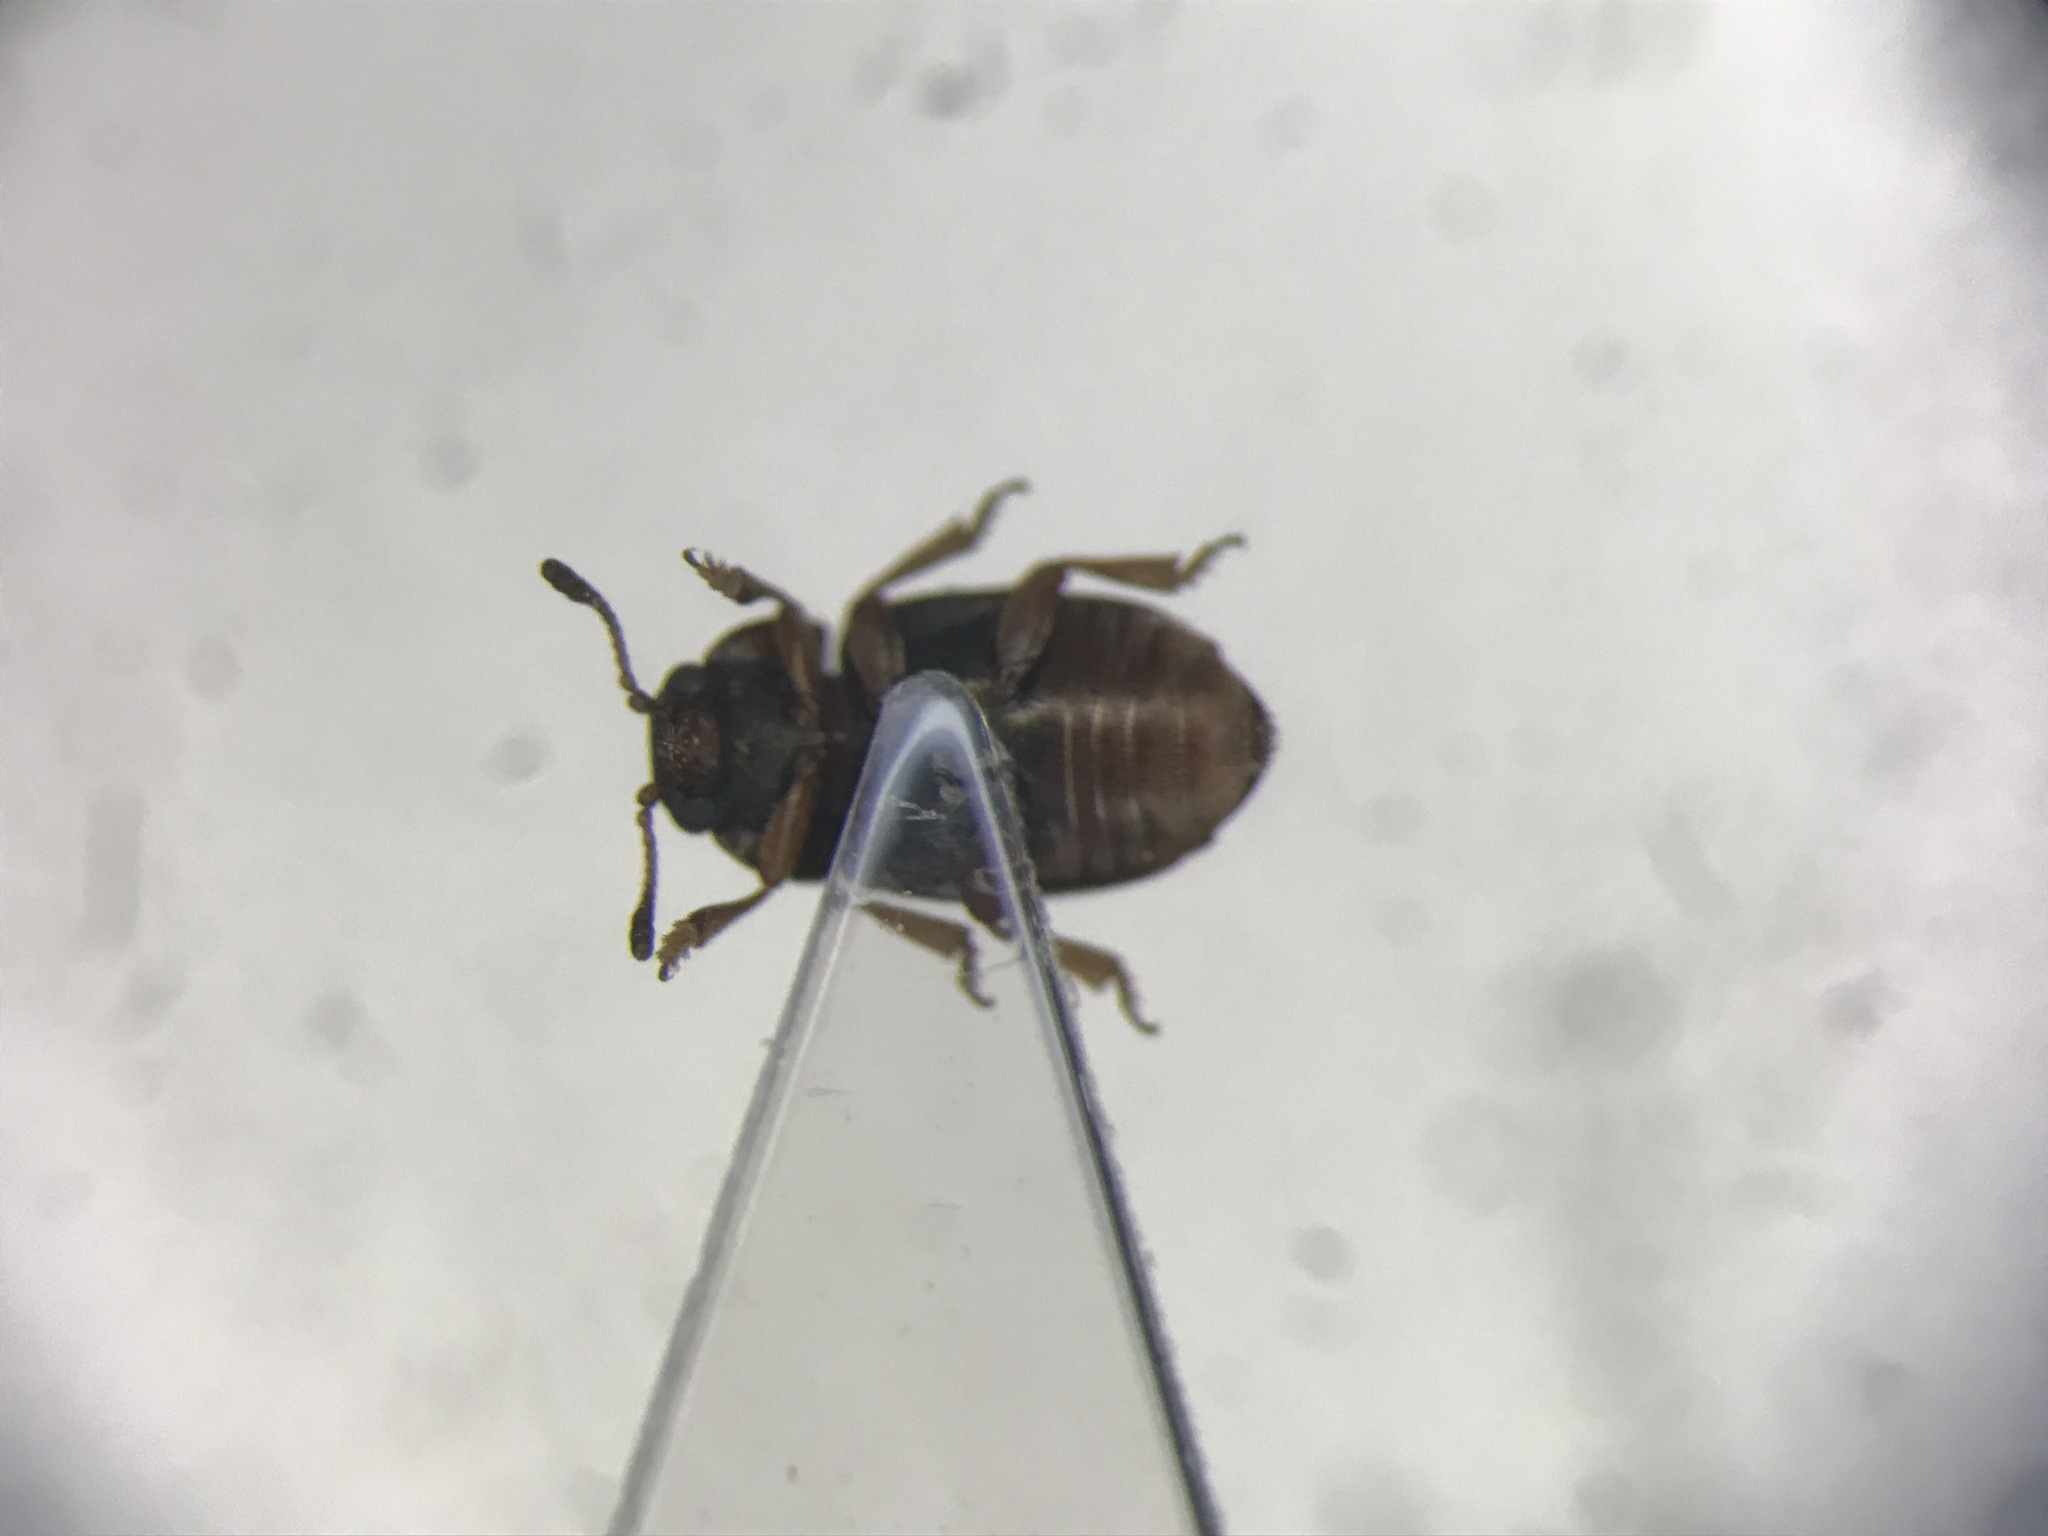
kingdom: Animalia
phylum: Arthropoda
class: Insecta
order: Coleoptera
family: Kateretidae
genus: Heterhelus
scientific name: Heterhelus abdominalis
